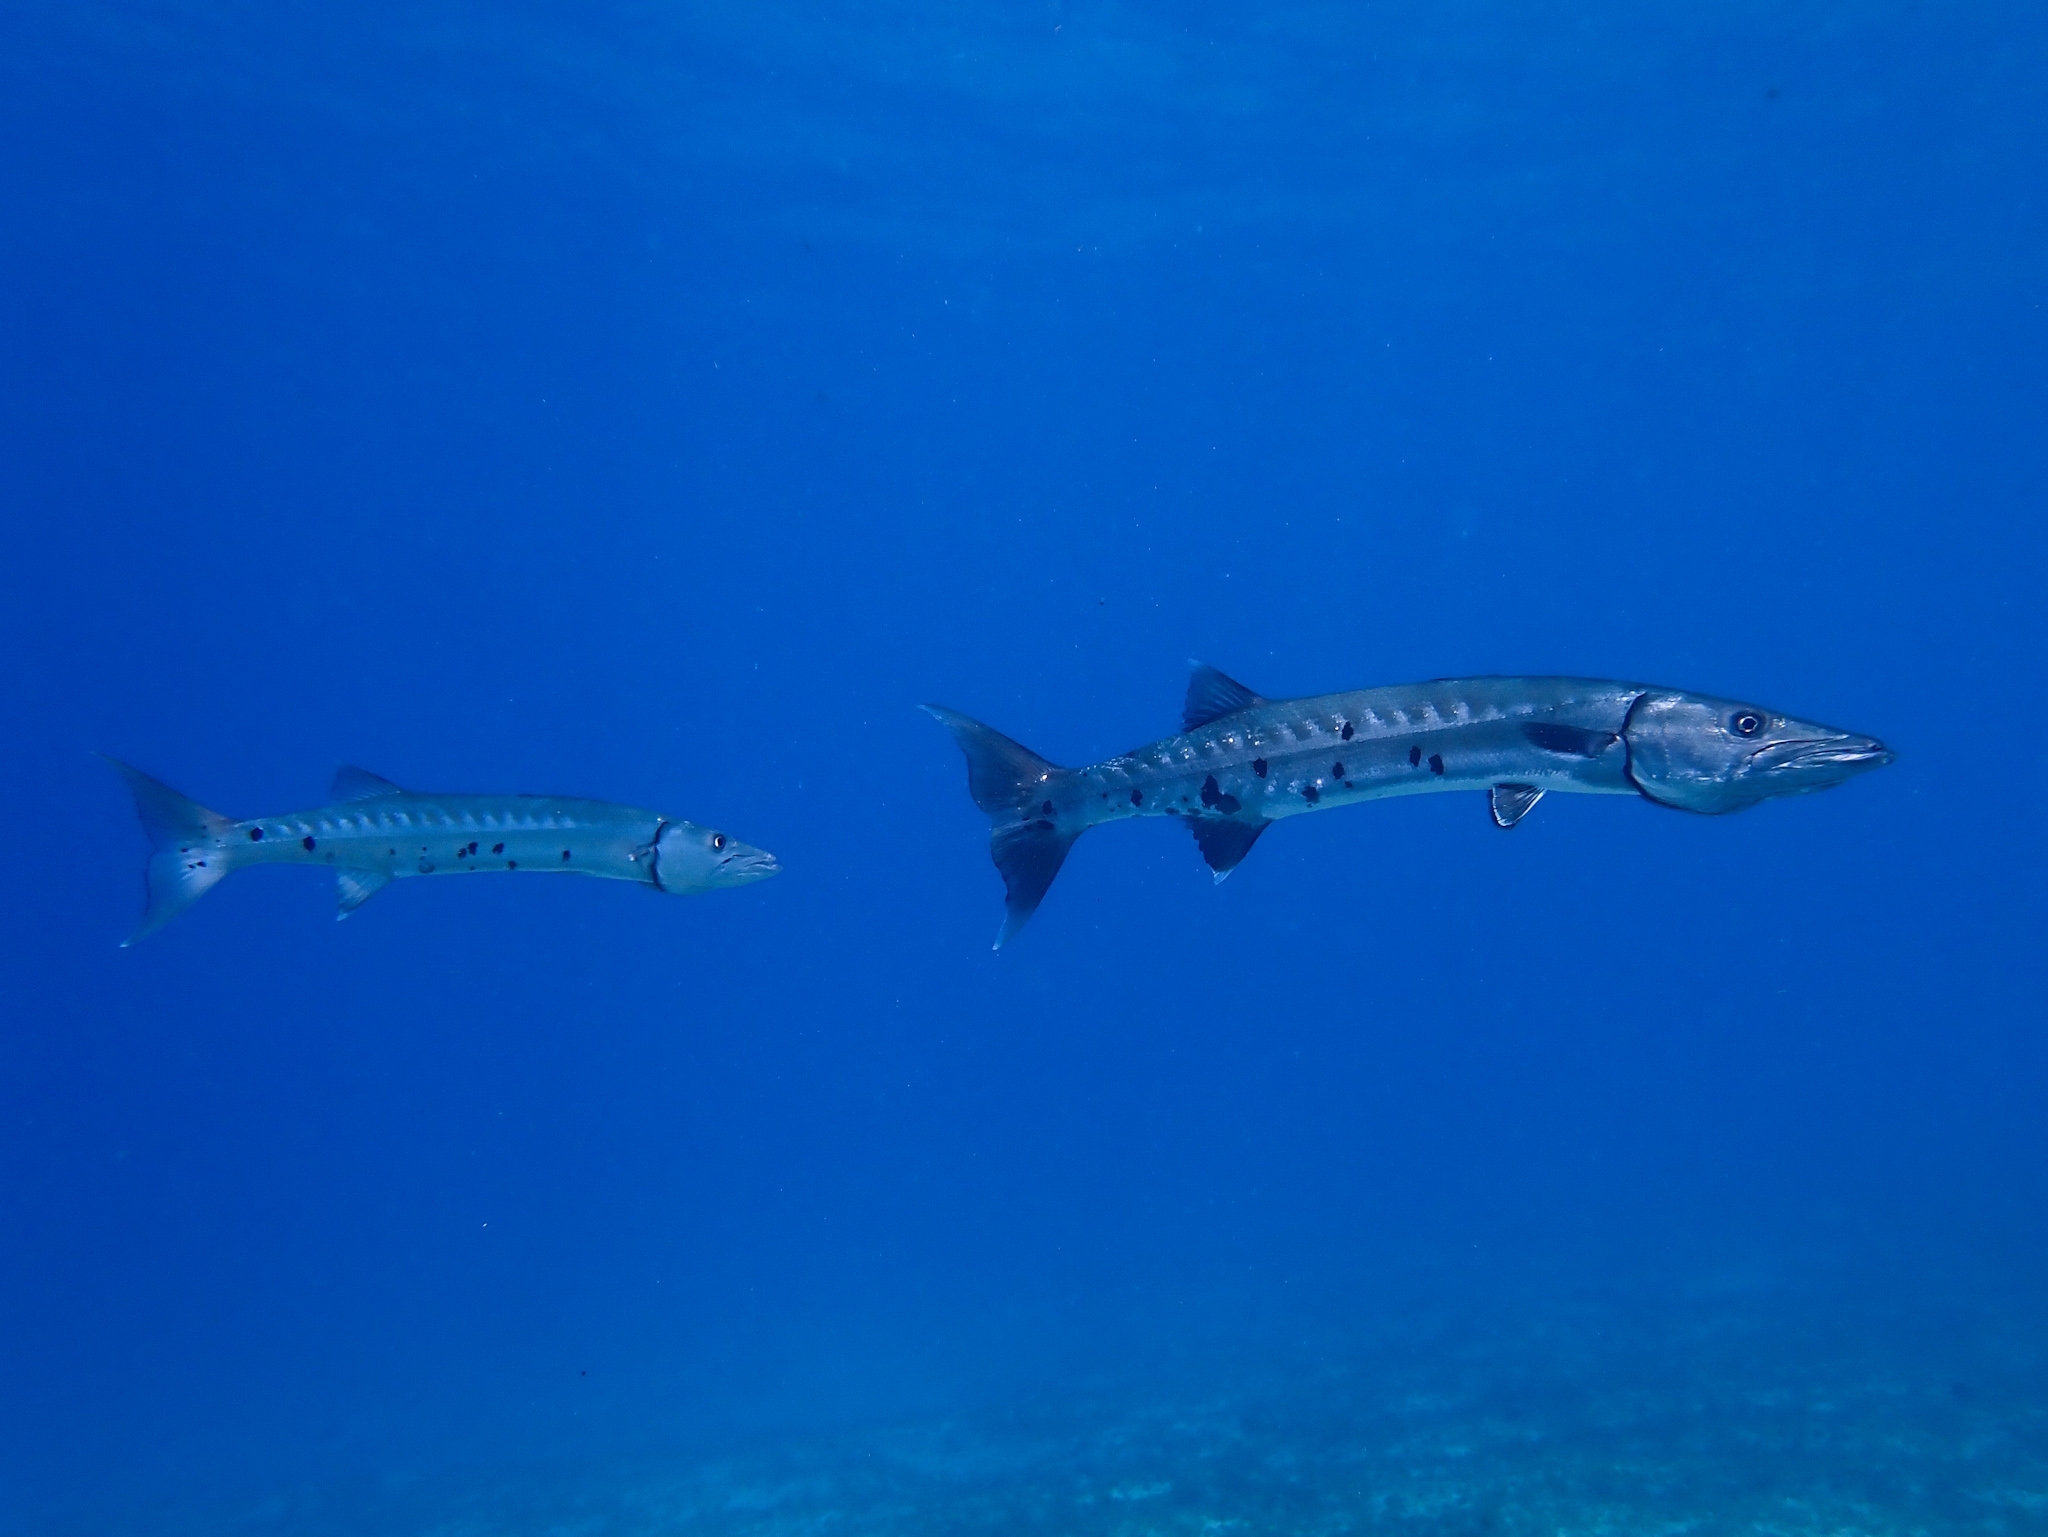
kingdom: Animalia
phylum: Chordata
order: Perciformes
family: Sphyraenidae
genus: Sphyraena
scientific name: Sphyraena barracuda
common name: Great barracuda
